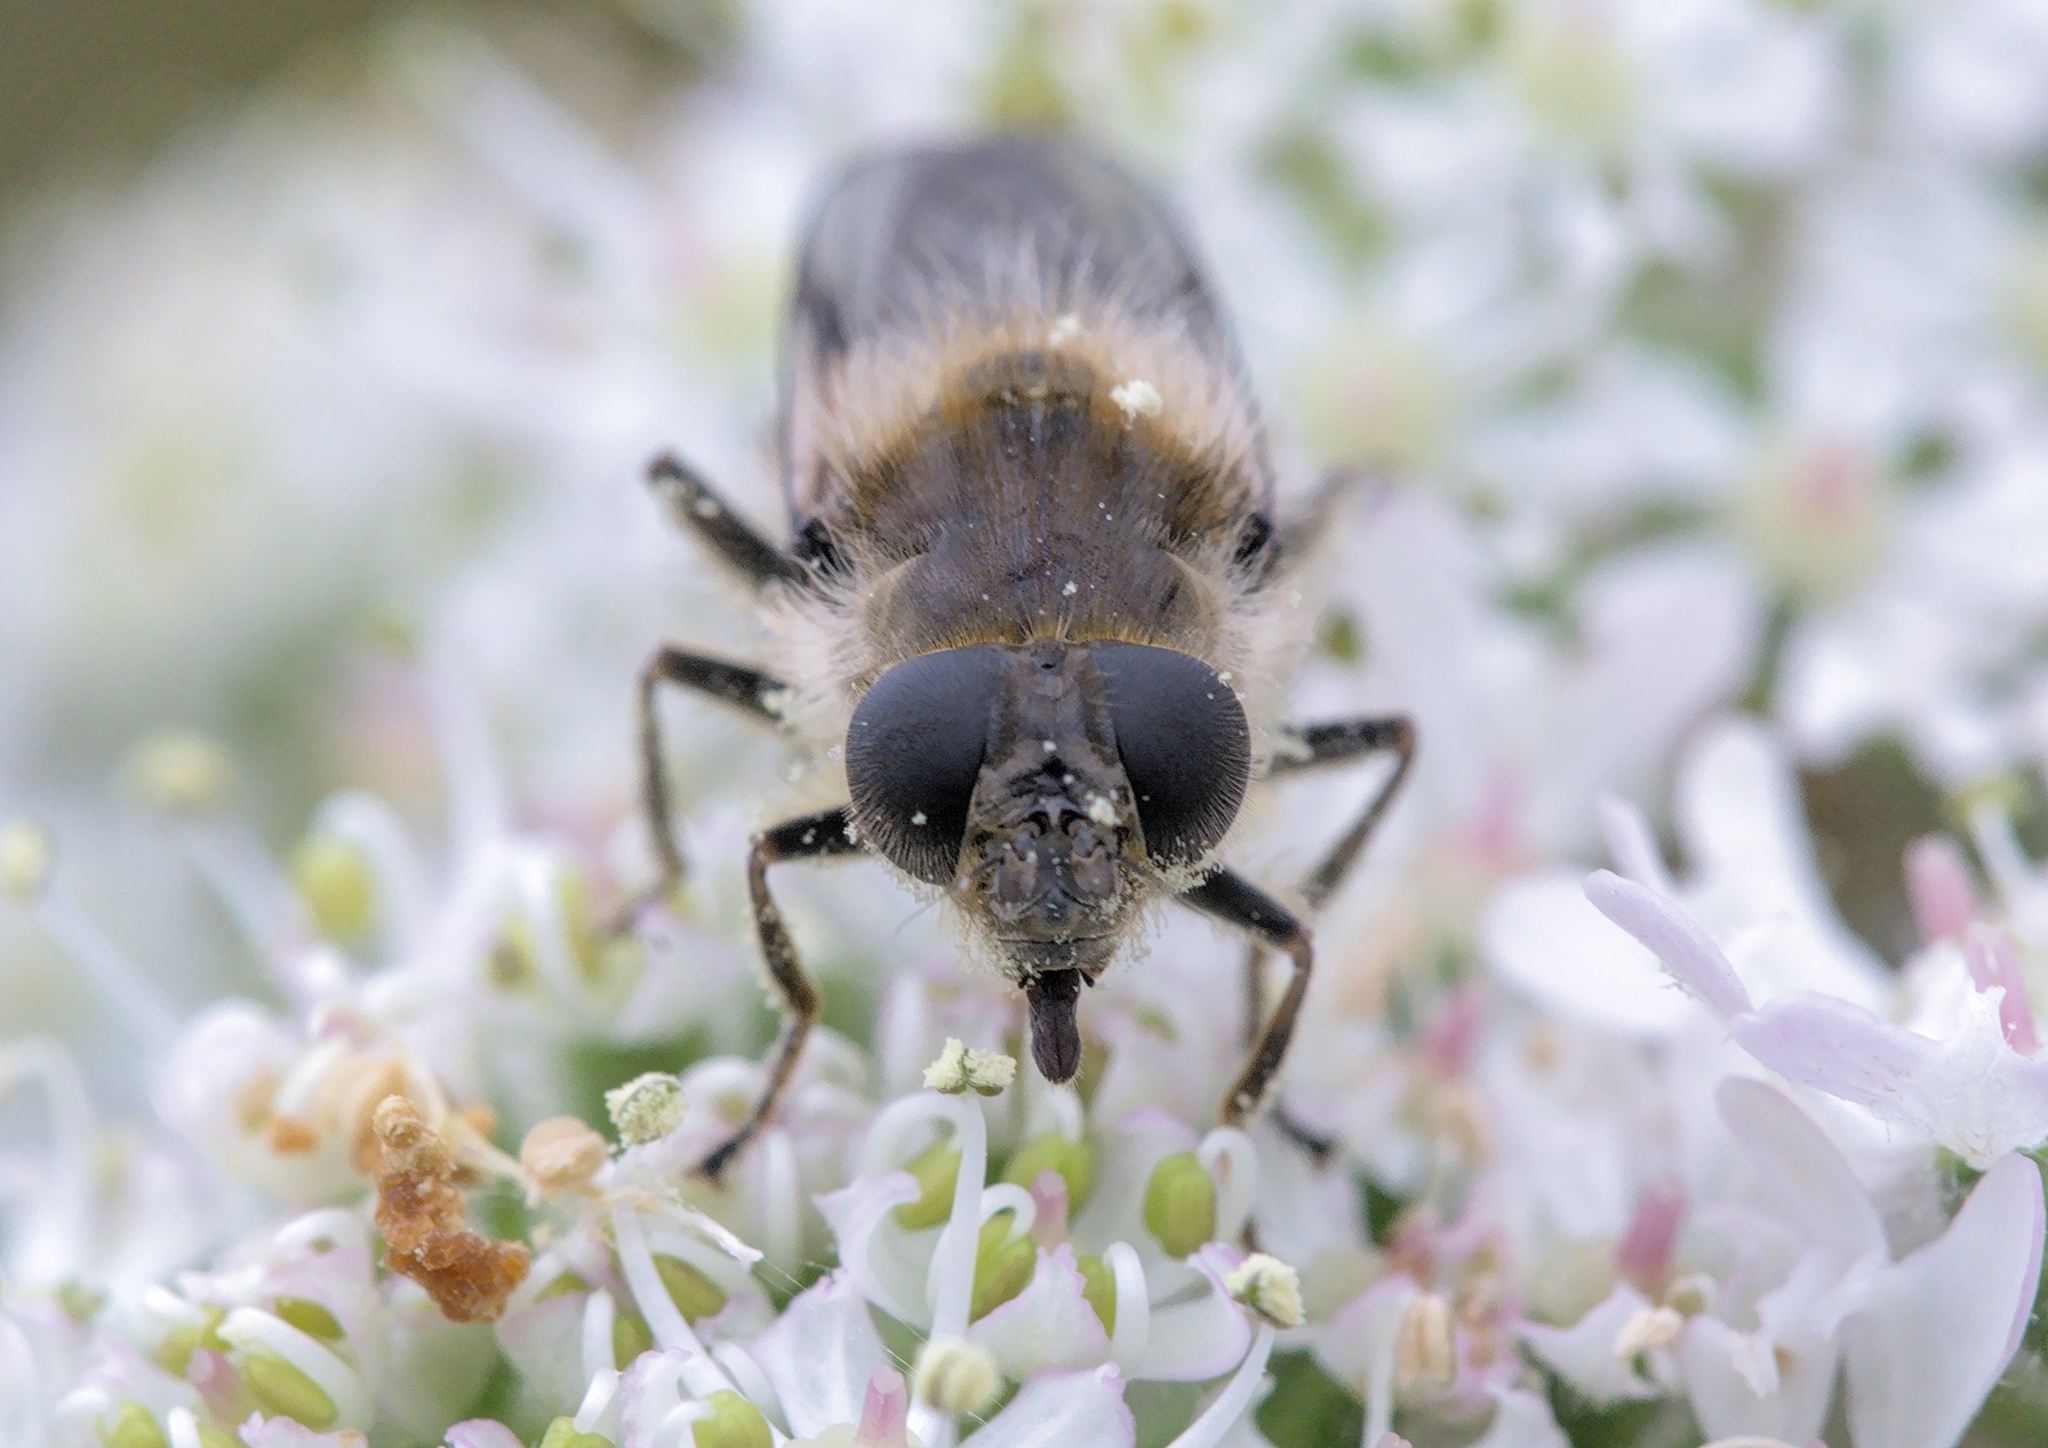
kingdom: Animalia
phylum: Arthropoda
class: Insecta
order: Diptera
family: Syrphidae
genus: Cheilosia
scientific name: Cheilosia illustrata
